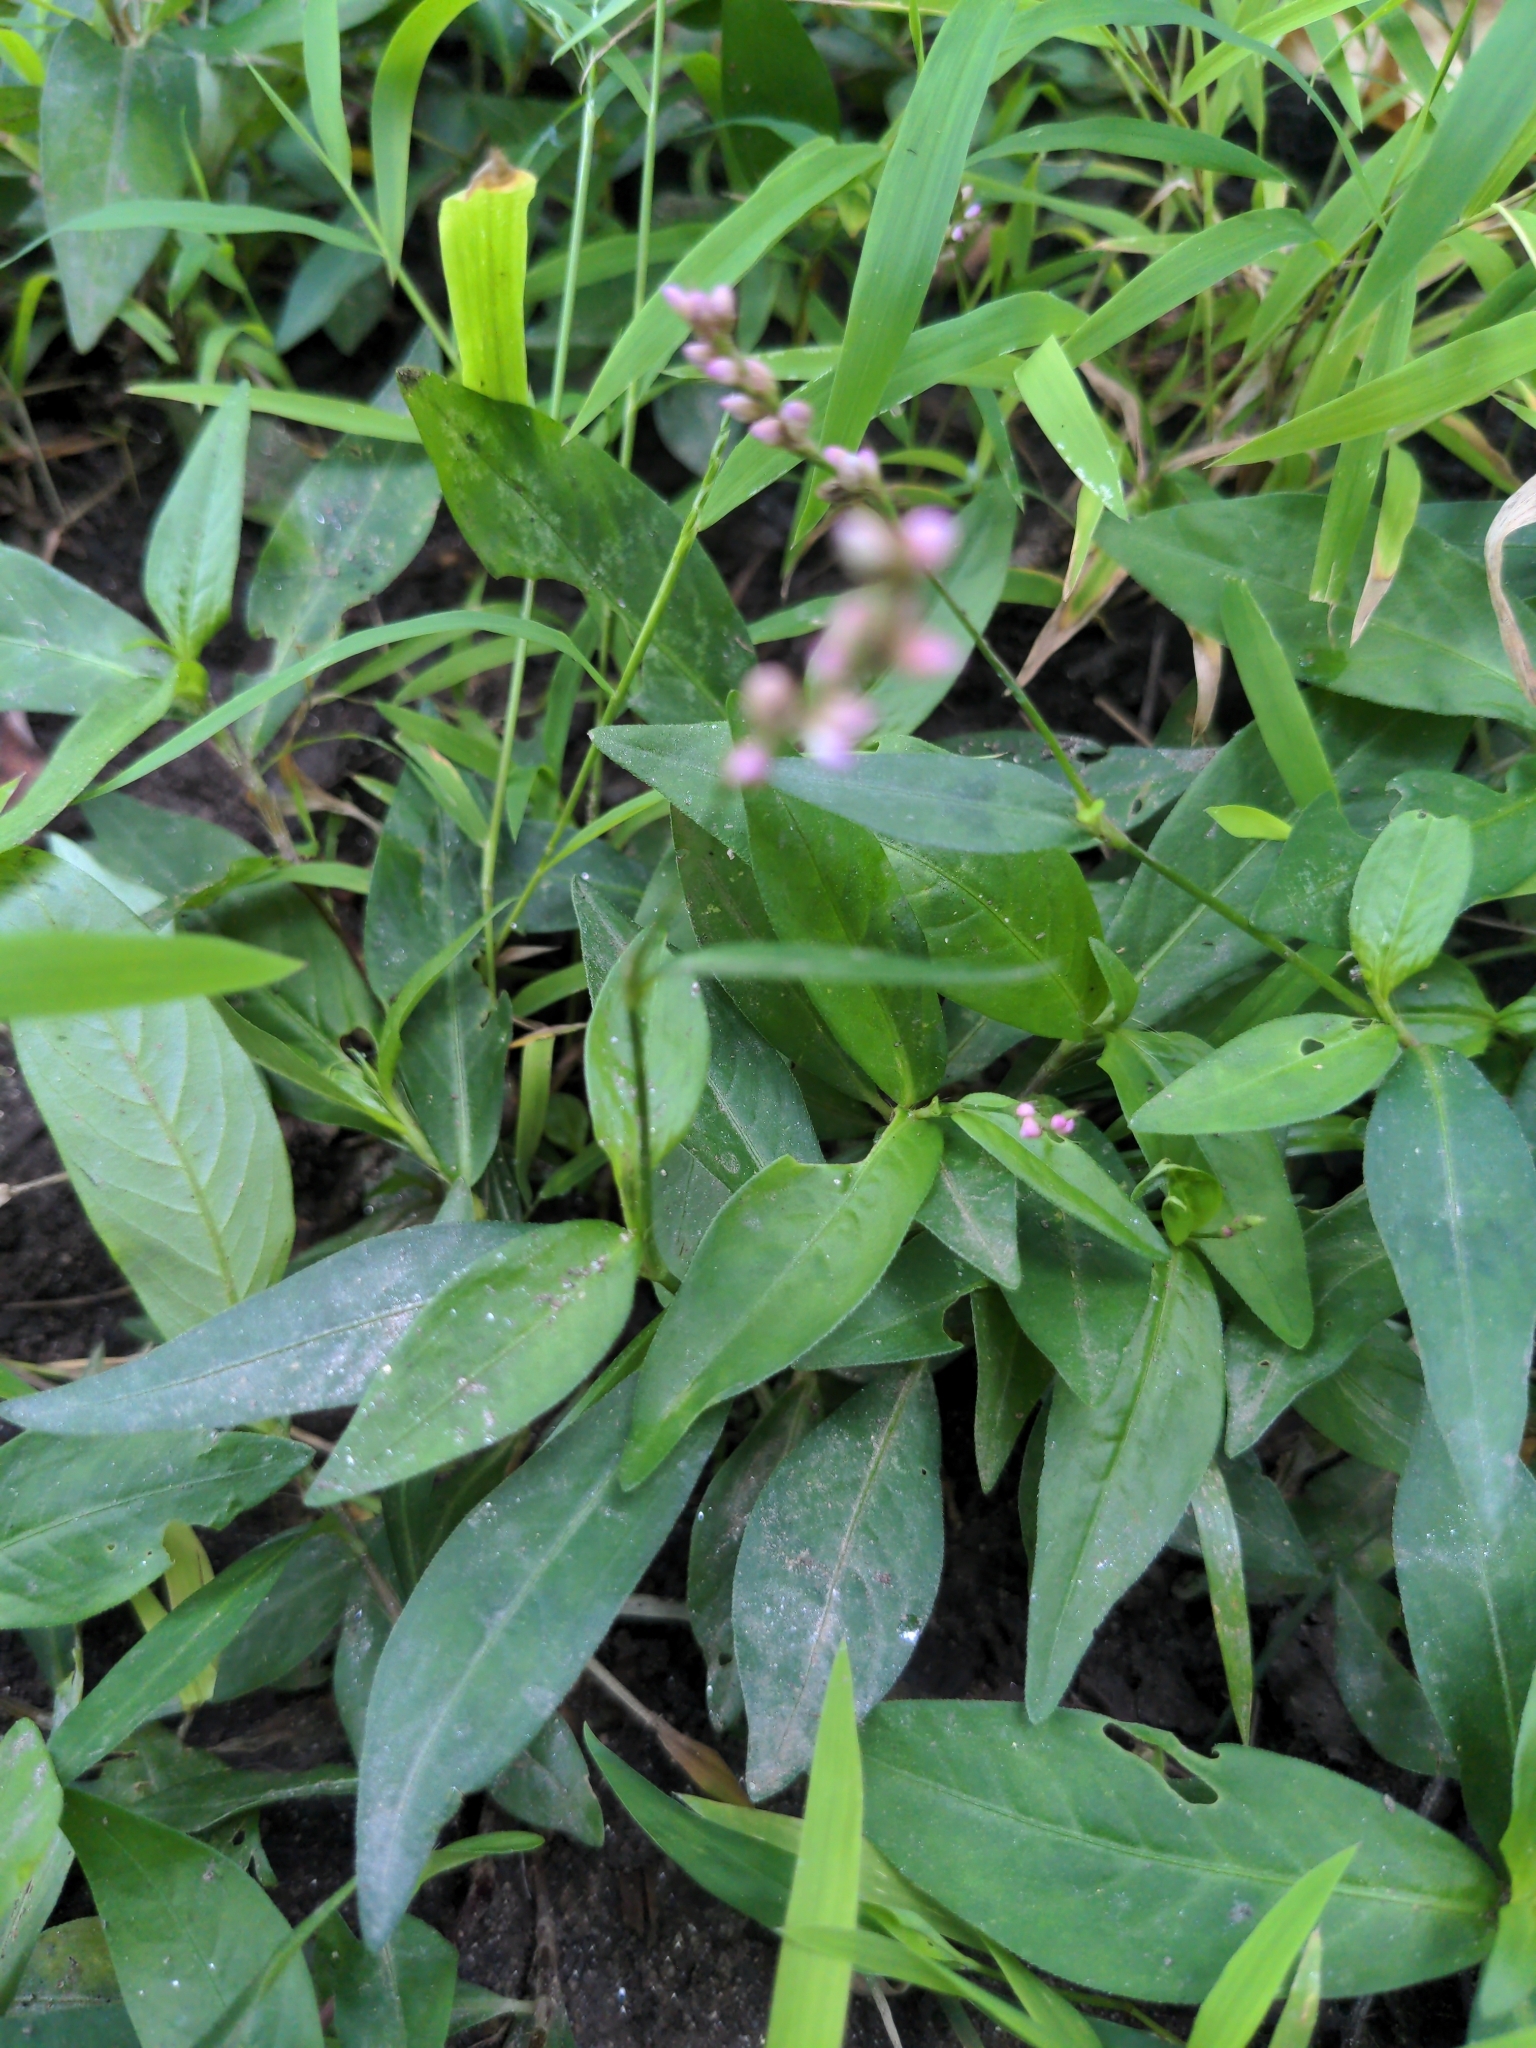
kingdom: Plantae
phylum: Tracheophyta
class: Magnoliopsida
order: Caryophyllales
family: Polygonaceae
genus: Persicaria
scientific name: Persicaria longiseta
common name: Bristly lady's-thumb
